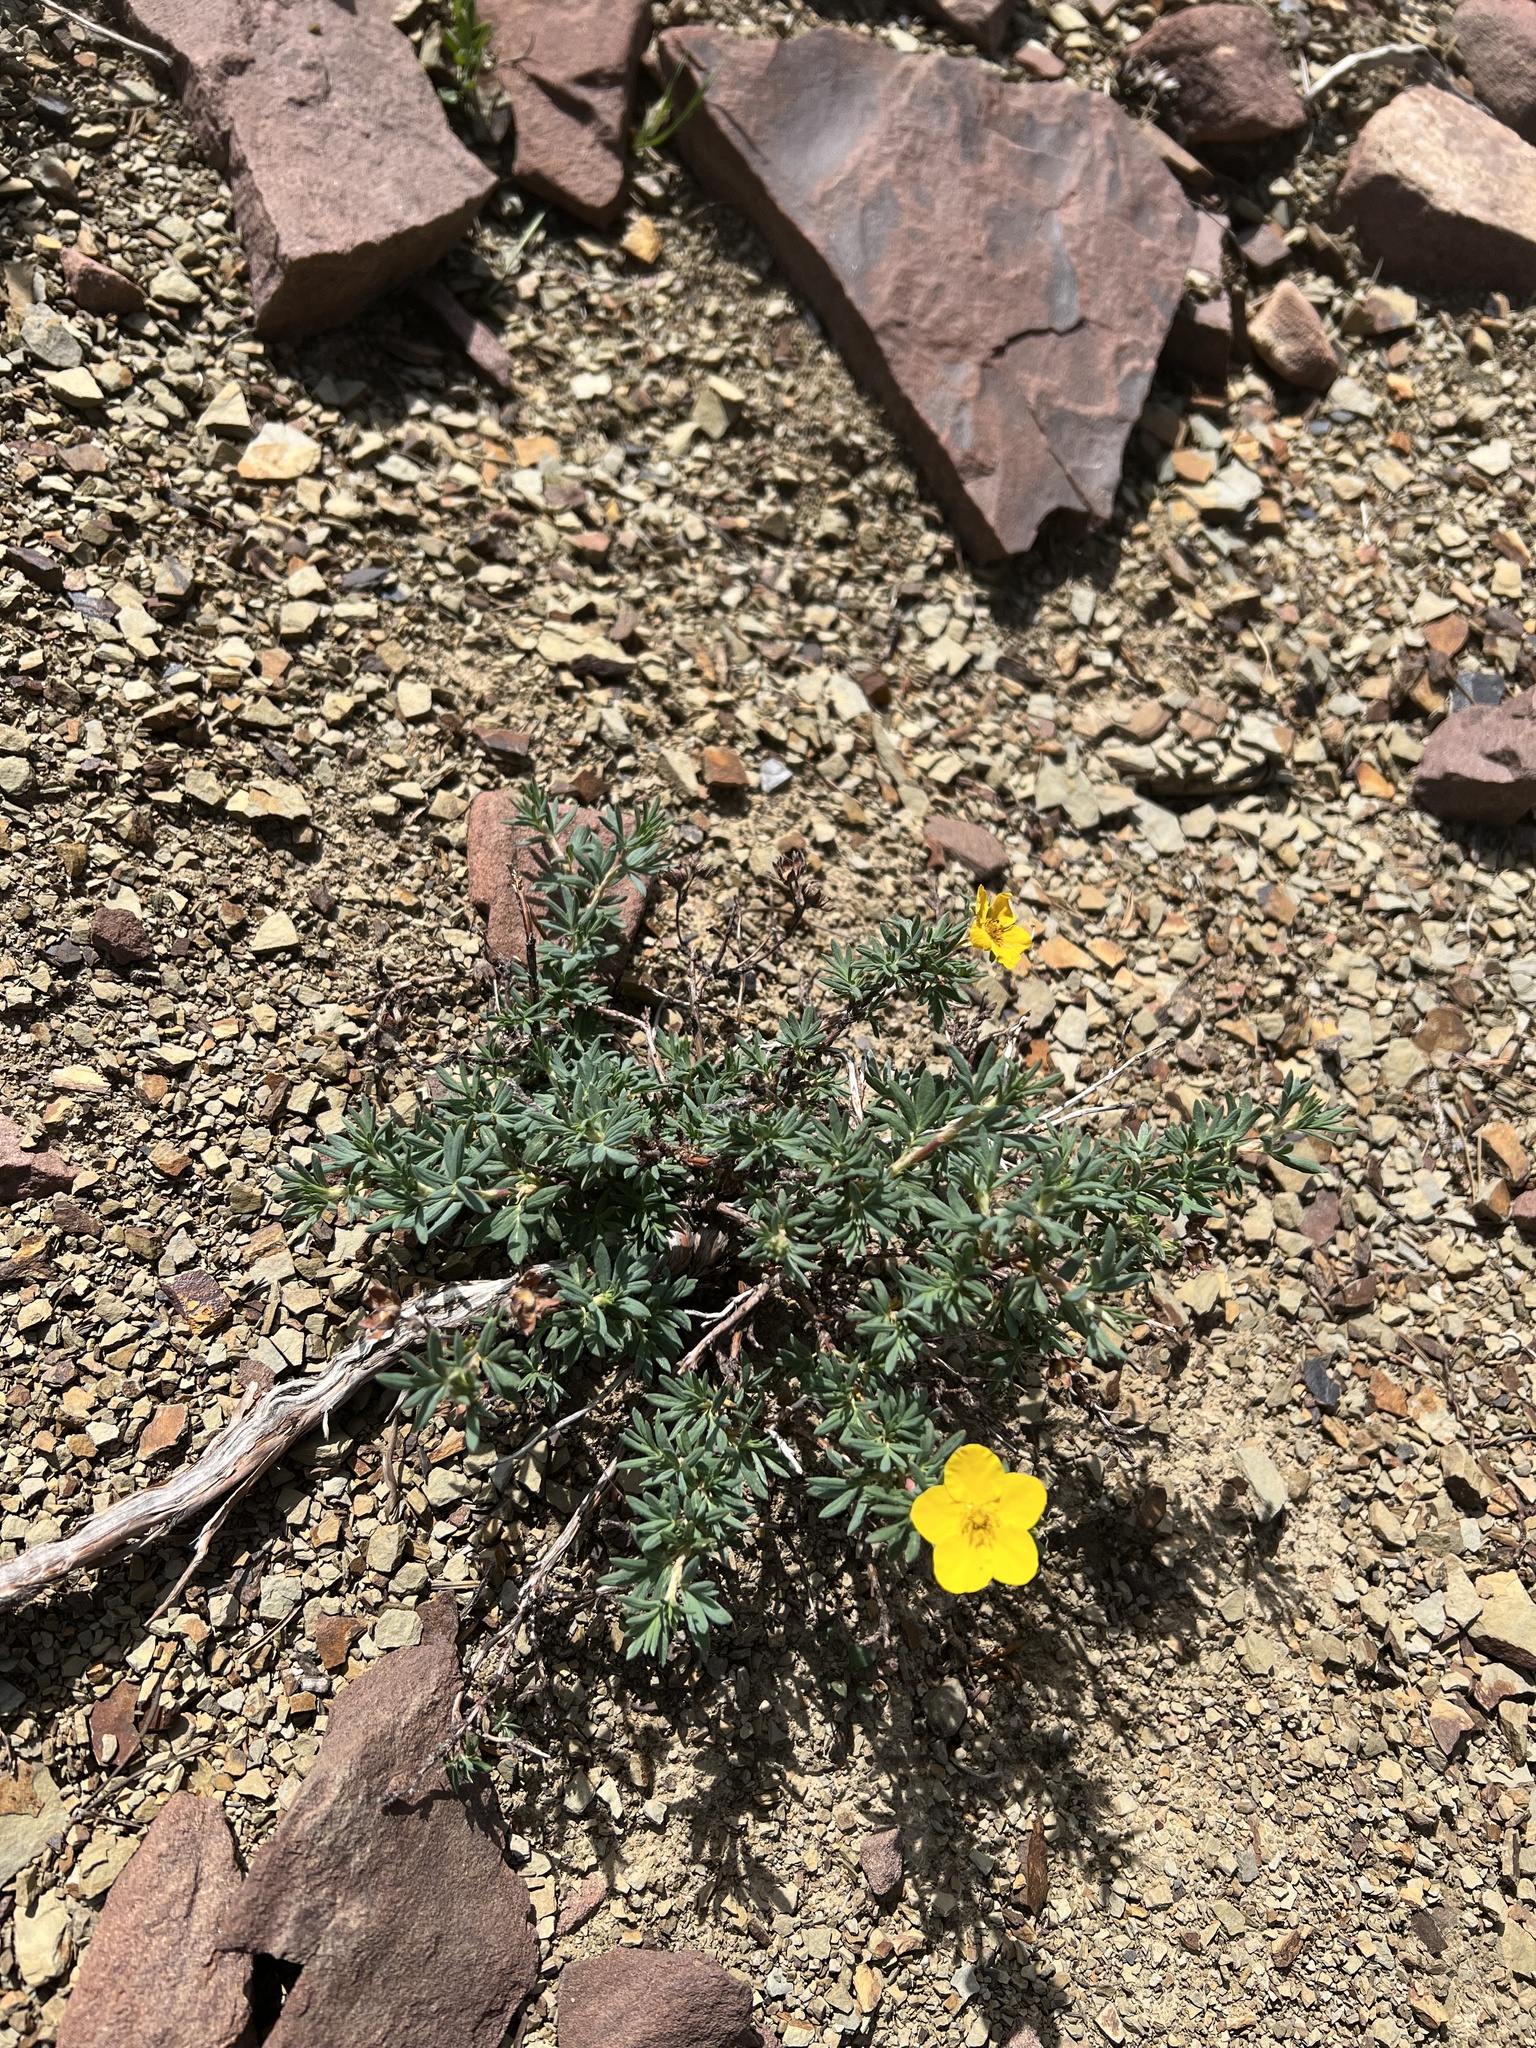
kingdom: Plantae
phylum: Tracheophyta
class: Magnoliopsida
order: Rosales
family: Rosaceae
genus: Dasiphora
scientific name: Dasiphora fruticosa
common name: Shrubby cinquefoil
